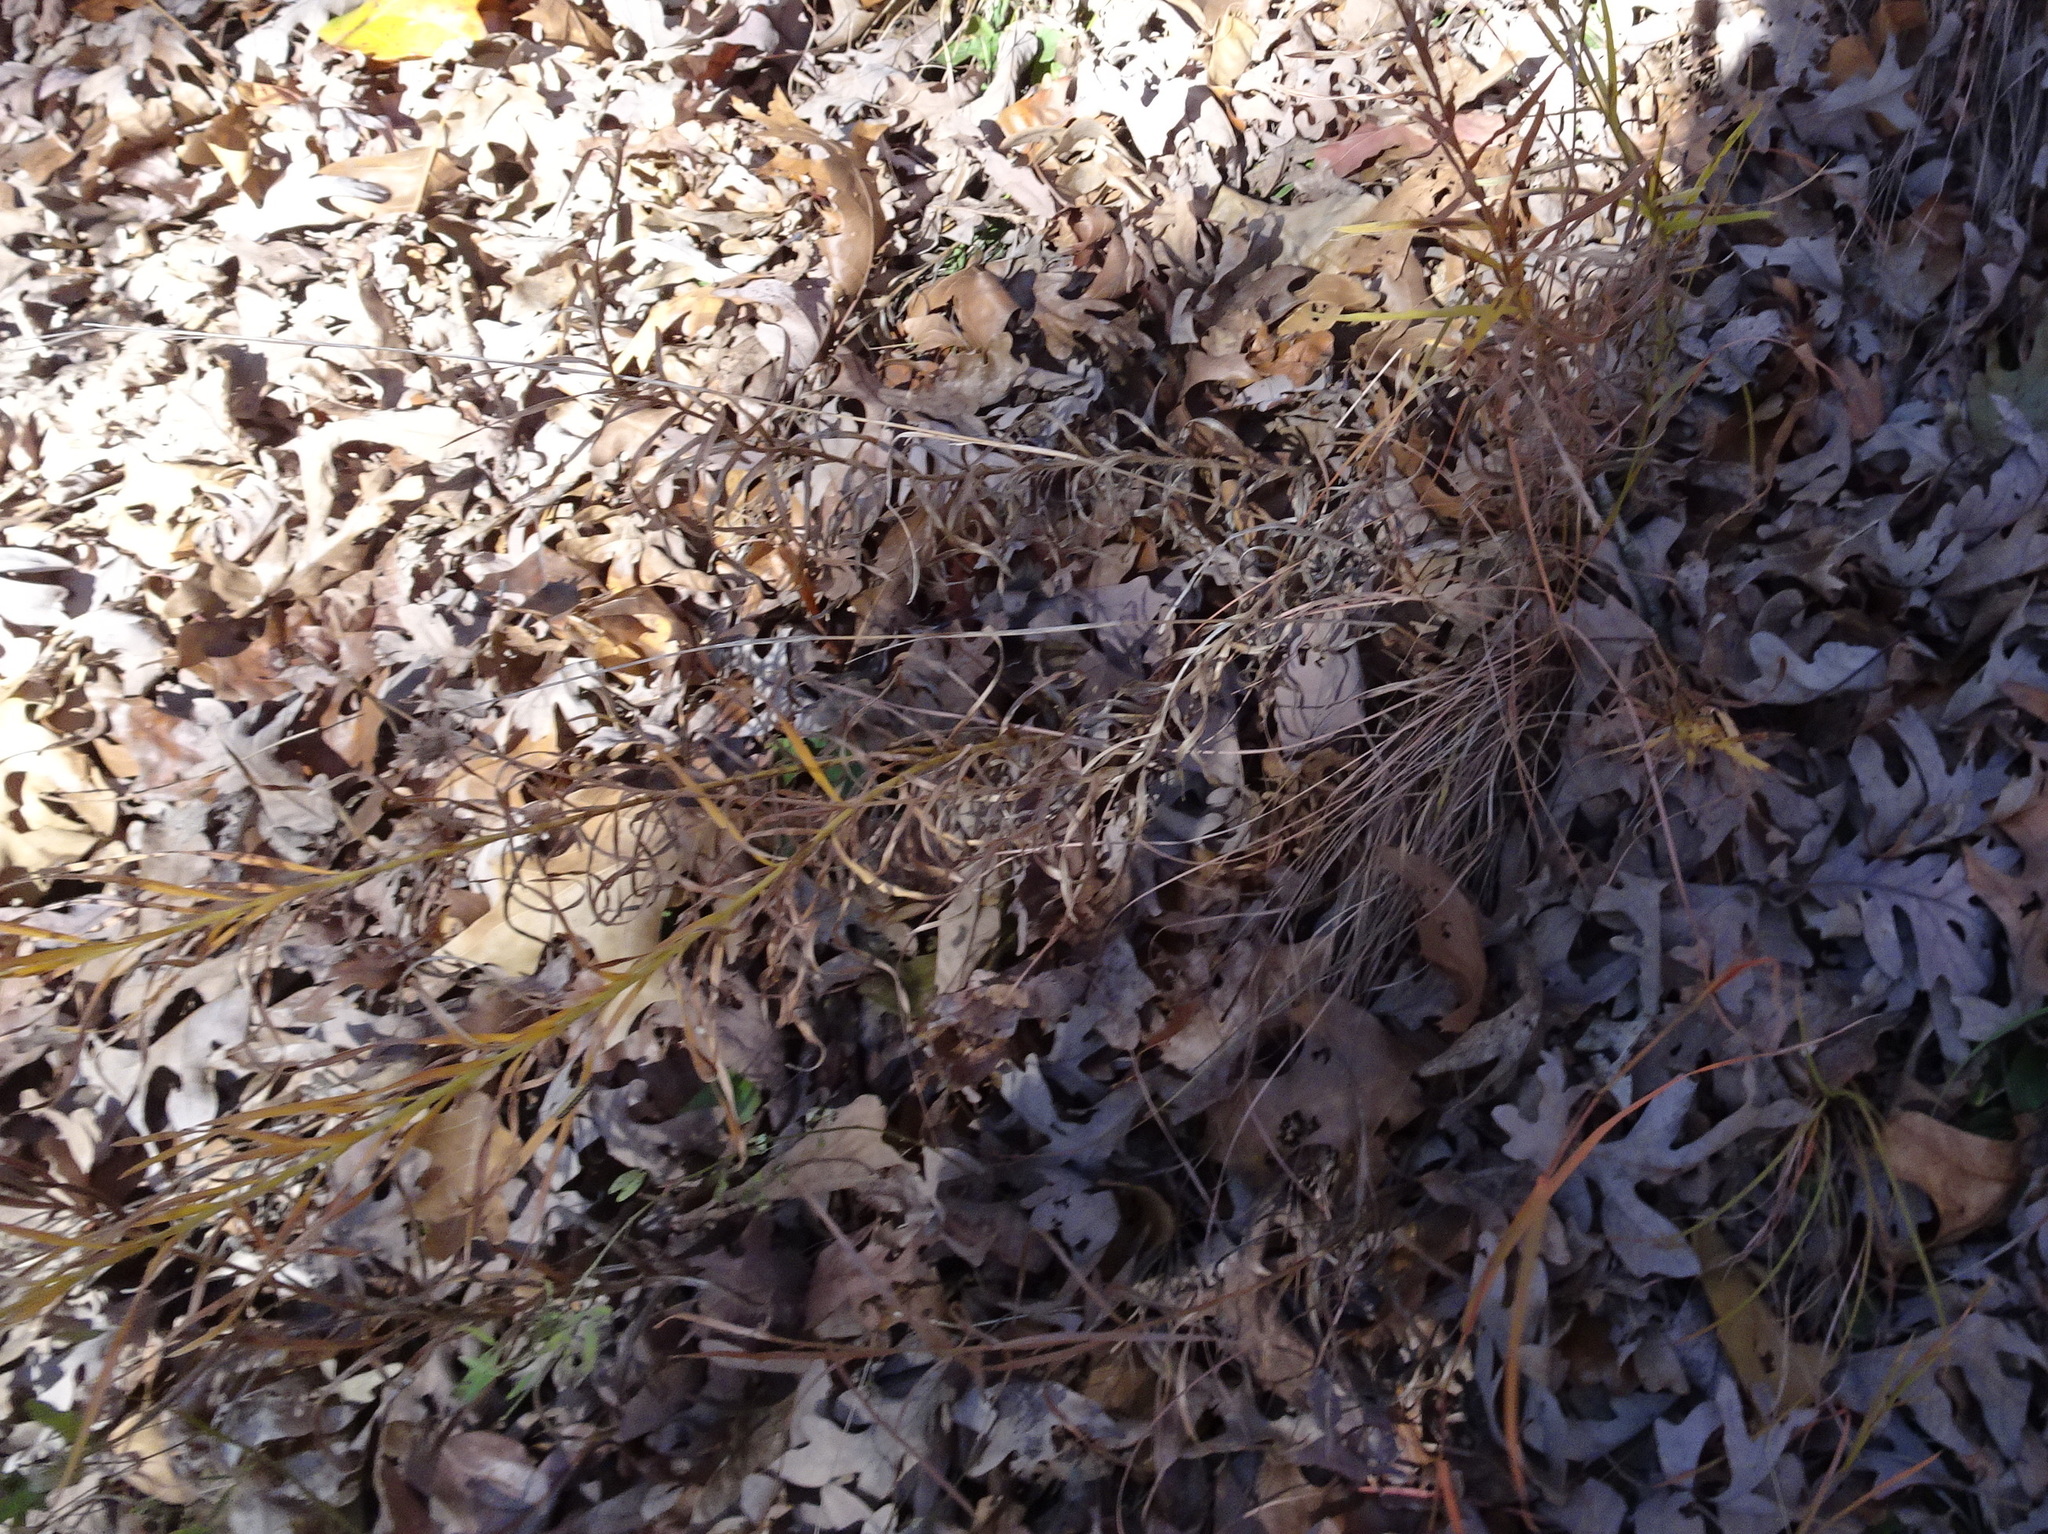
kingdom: Plantae
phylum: Tracheophyta
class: Magnoliopsida
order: Asterales
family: Asteraceae
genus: Liatris
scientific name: Liatris hirsuta
